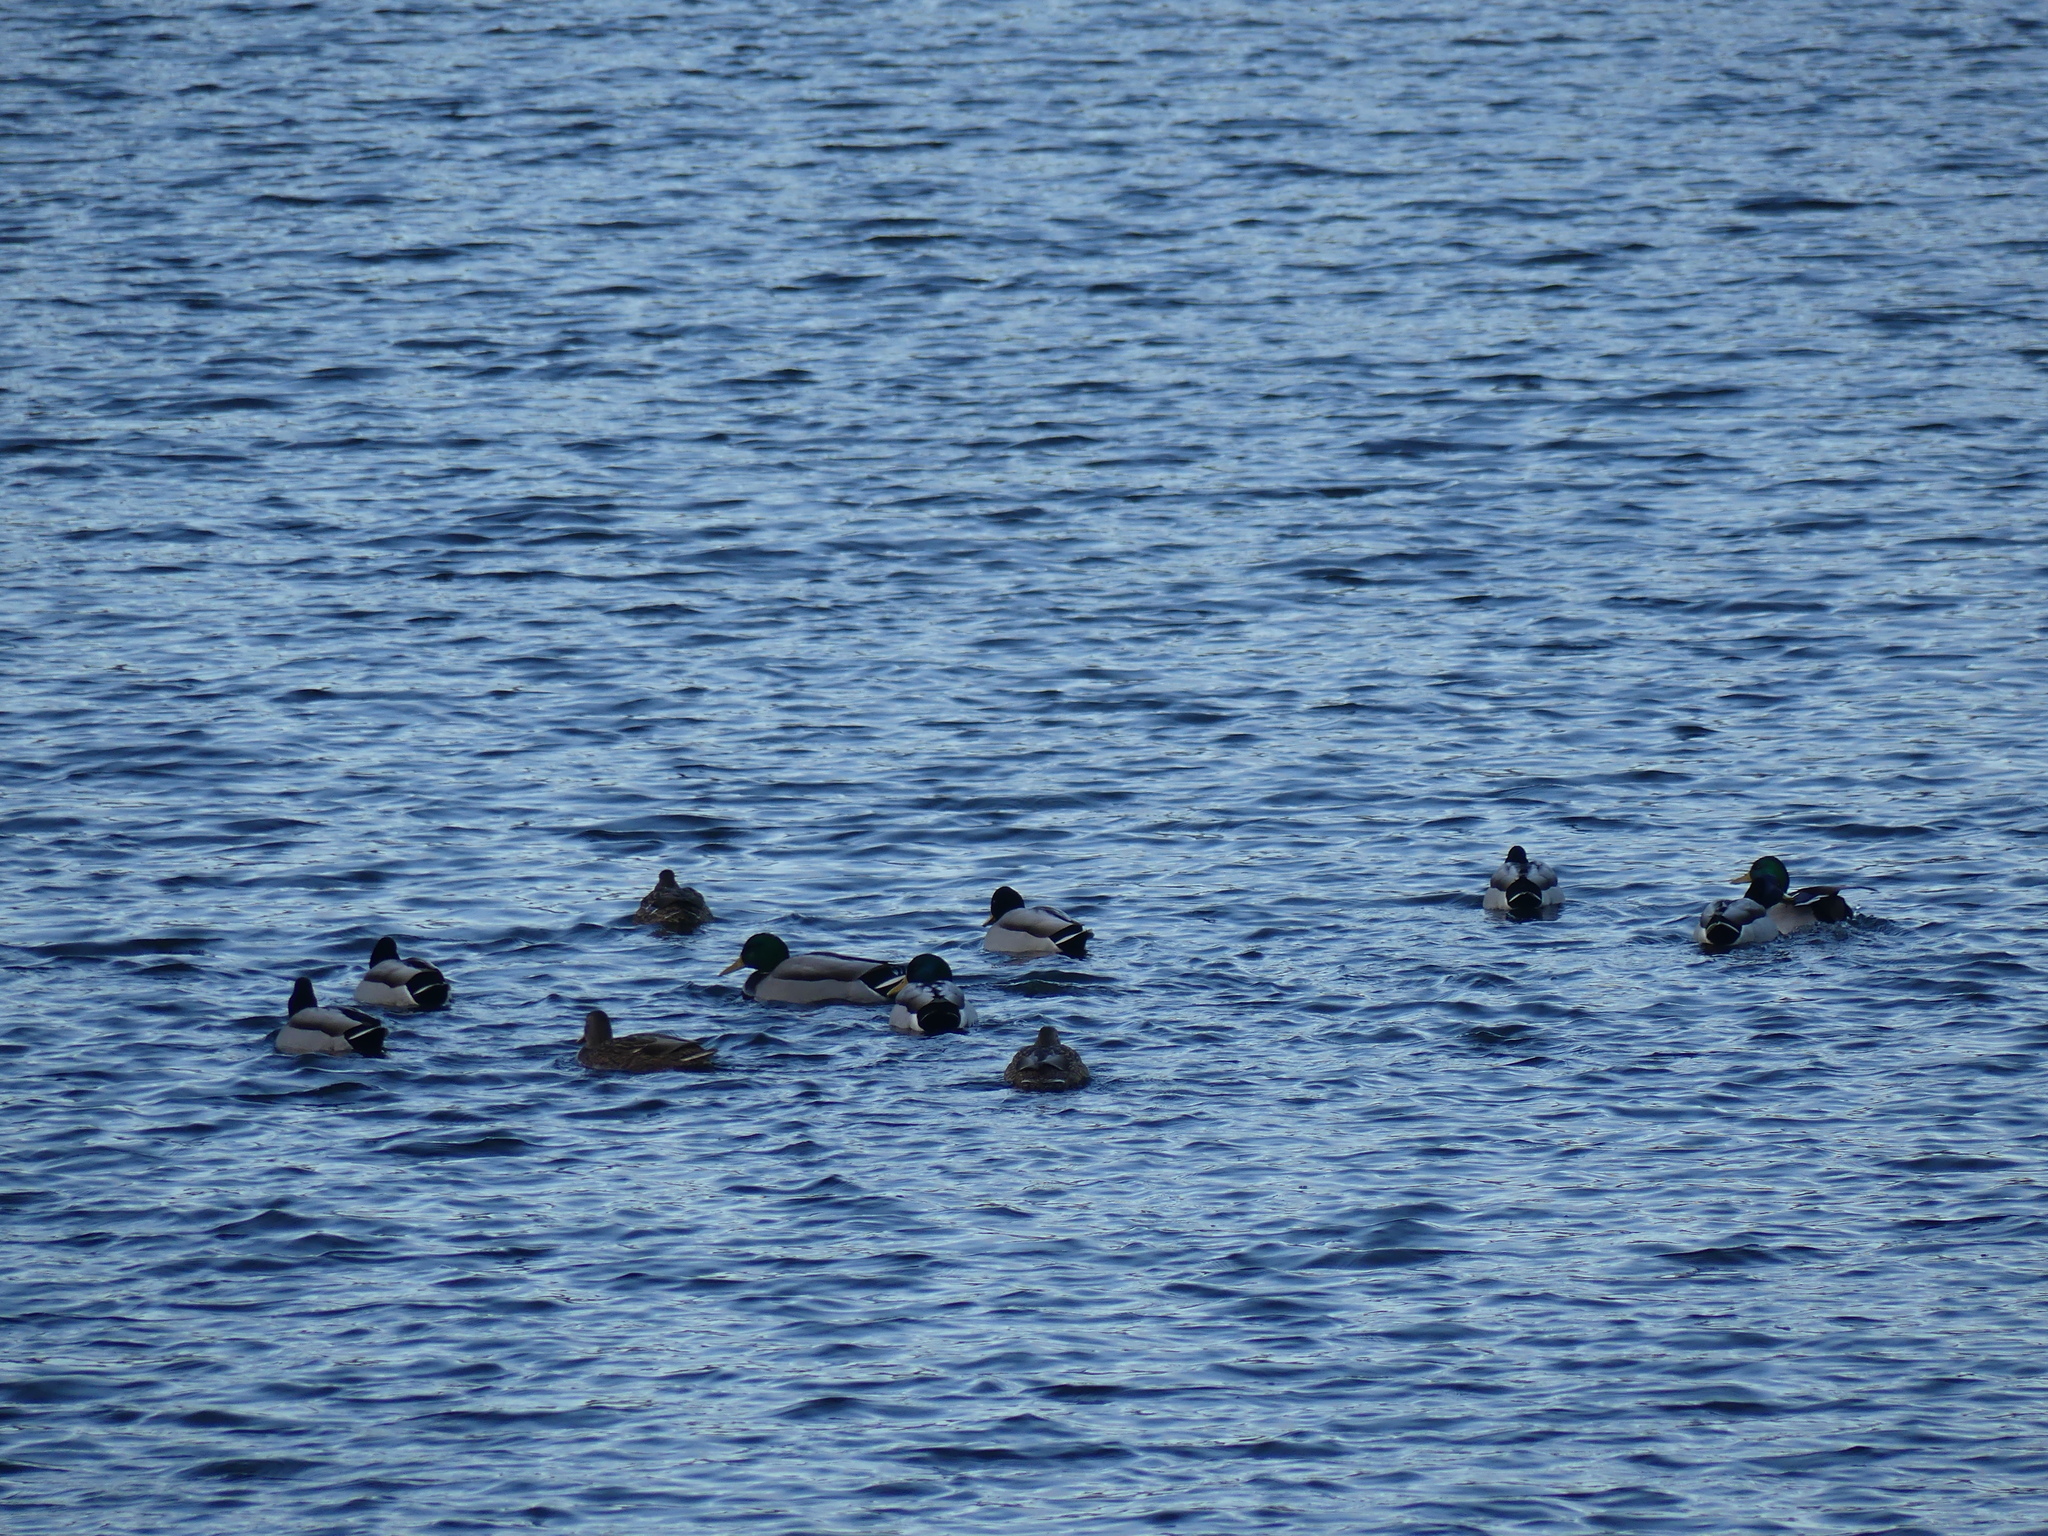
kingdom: Animalia
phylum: Chordata
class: Aves
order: Anseriformes
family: Anatidae
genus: Anas
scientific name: Anas platyrhynchos
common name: Mallard
